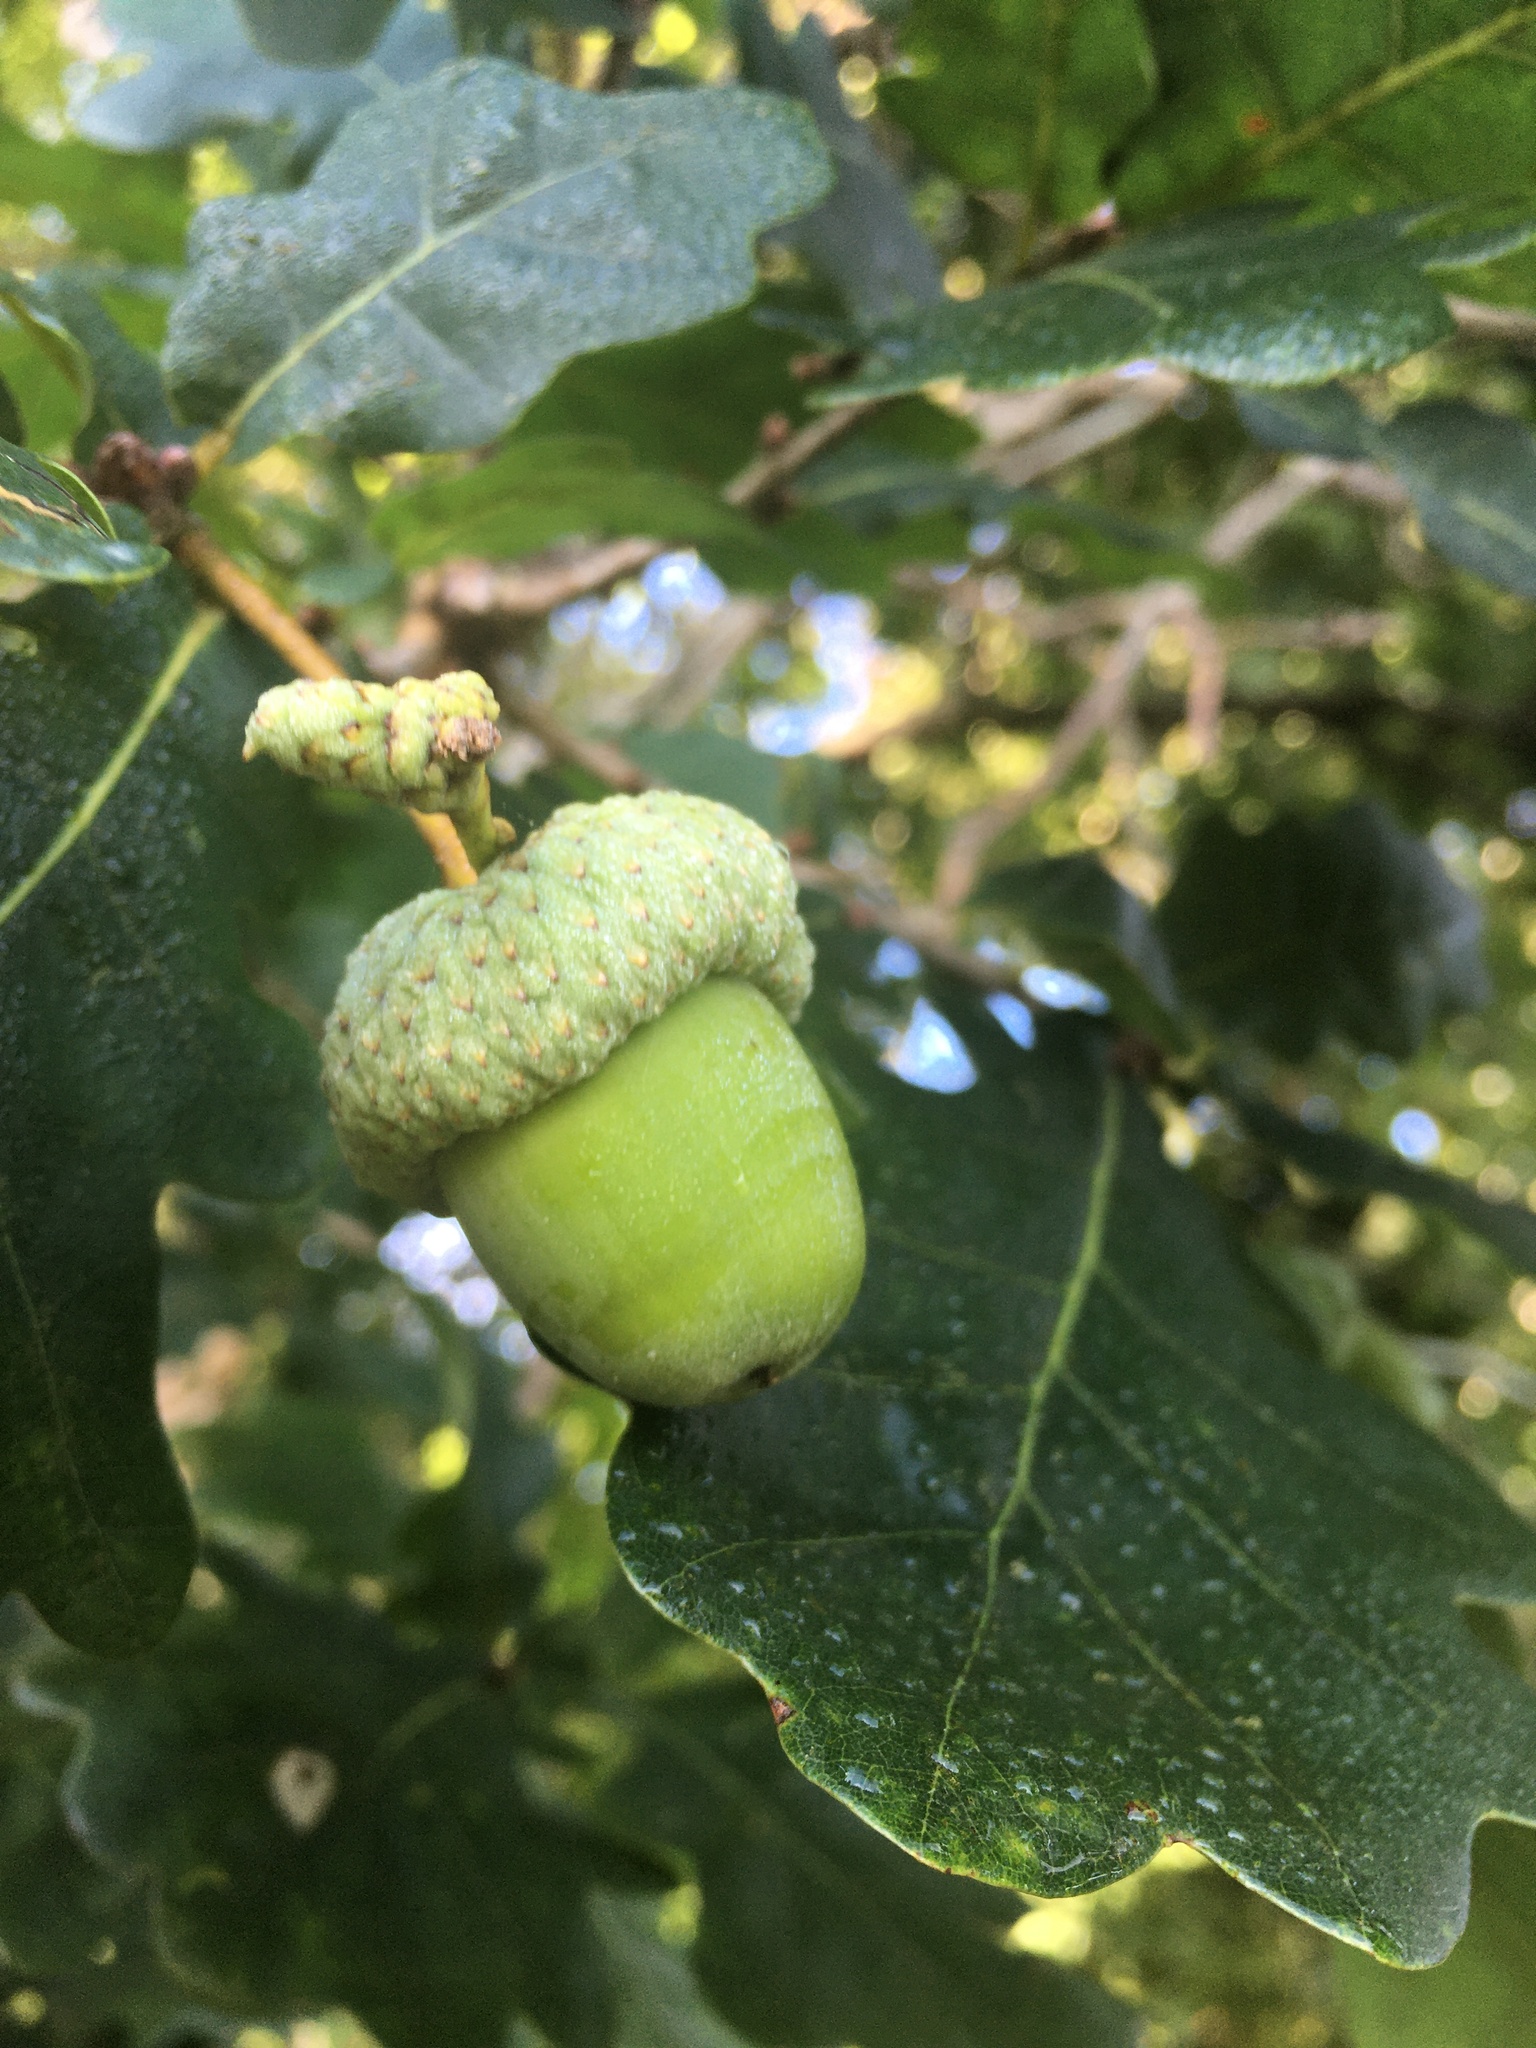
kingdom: Plantae
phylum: Tracheophyta
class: Magnoliopsida
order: Fagales
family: Fagaceae
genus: Quercus
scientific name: Quercus robur
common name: Pedunculate oak
